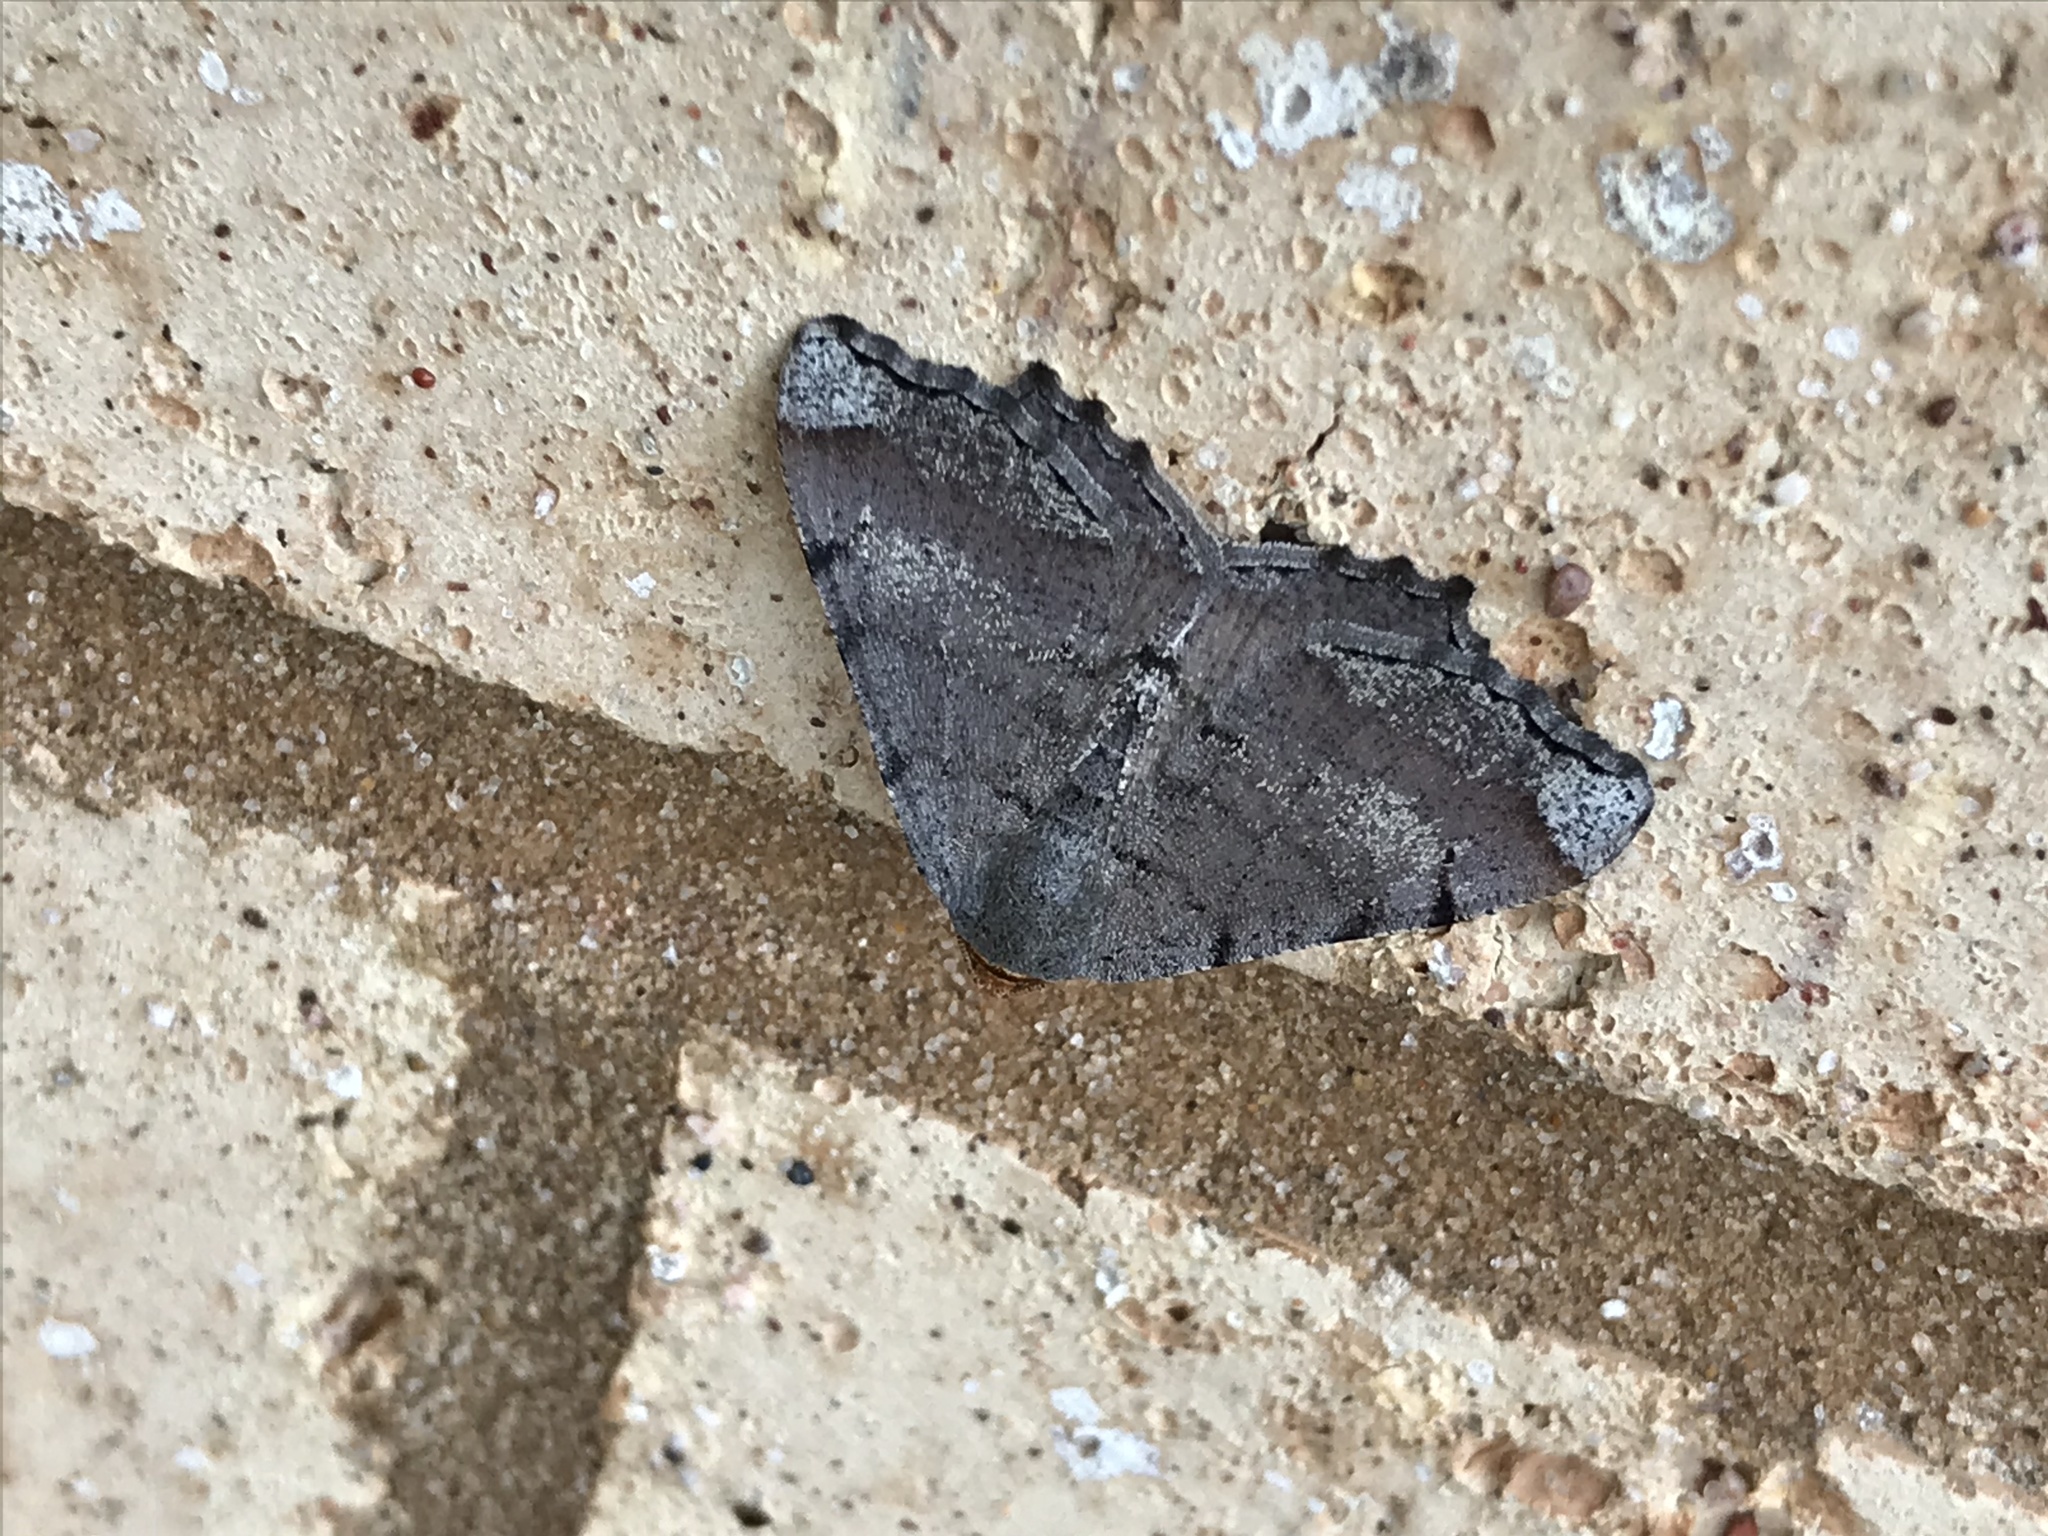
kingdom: Animalia
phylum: Arthropoda
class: Insecta
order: Lepidoptera
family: Geometridae
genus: Macaria
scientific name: Macaria transitaria
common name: Blurry chocolate angle
